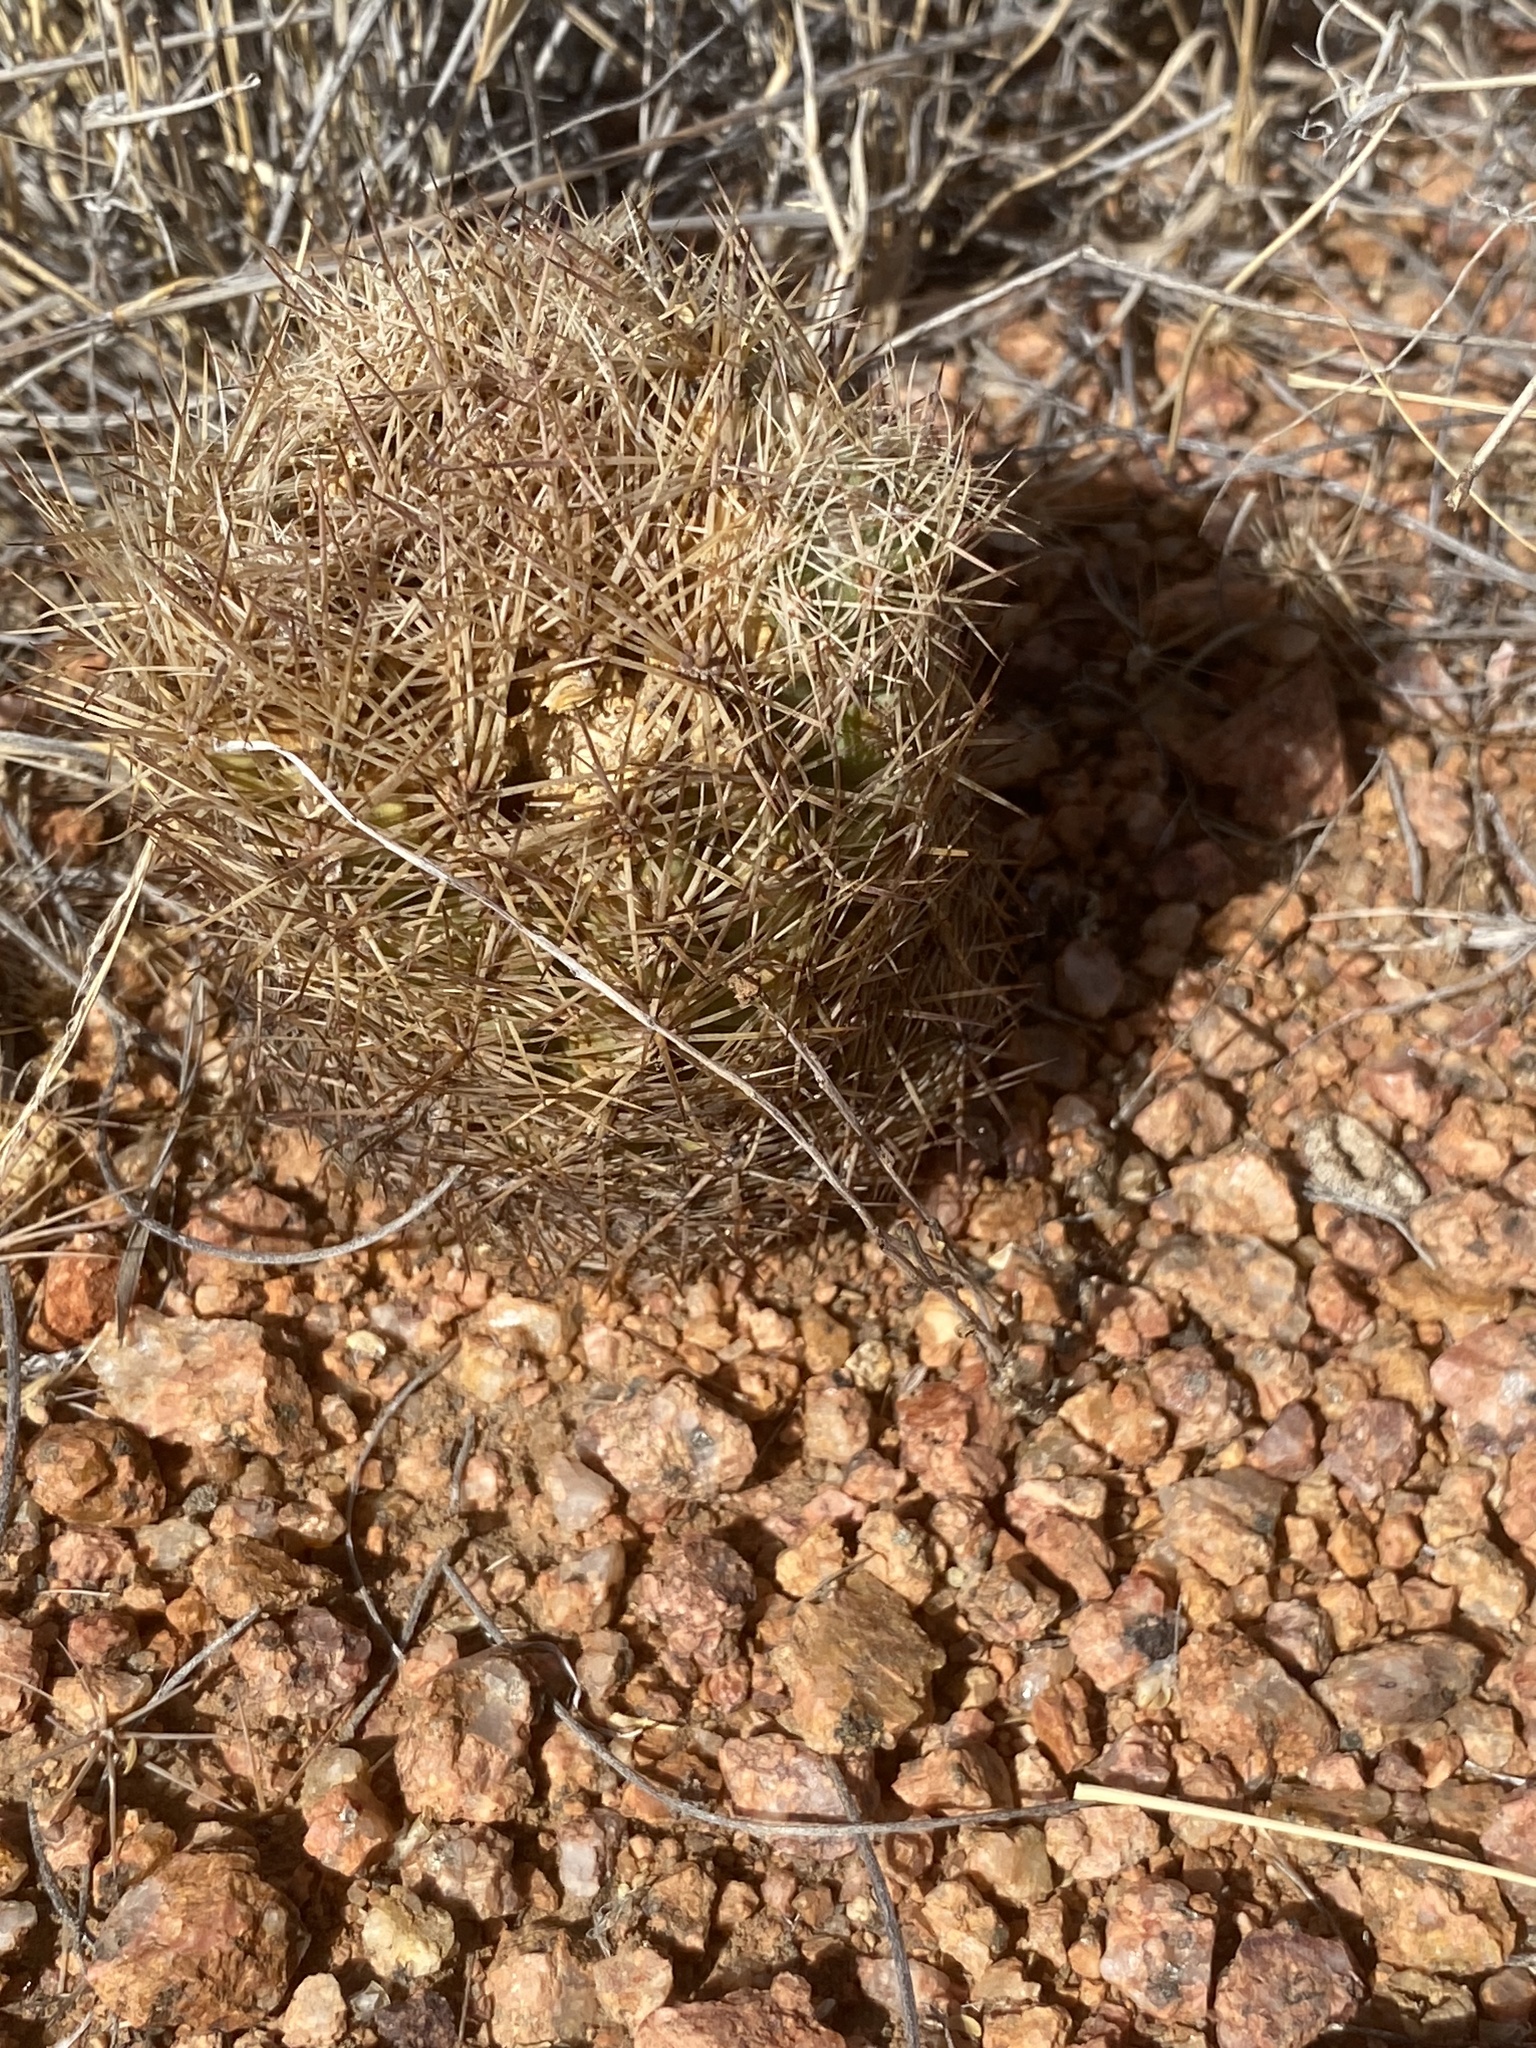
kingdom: Plantae
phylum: Tracheophyta
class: Magnoliopsida
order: Caryophyllales
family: Cactaceae
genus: Sclerocactus
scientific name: Sclerocactus intertextus
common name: White fish-hook cactus
